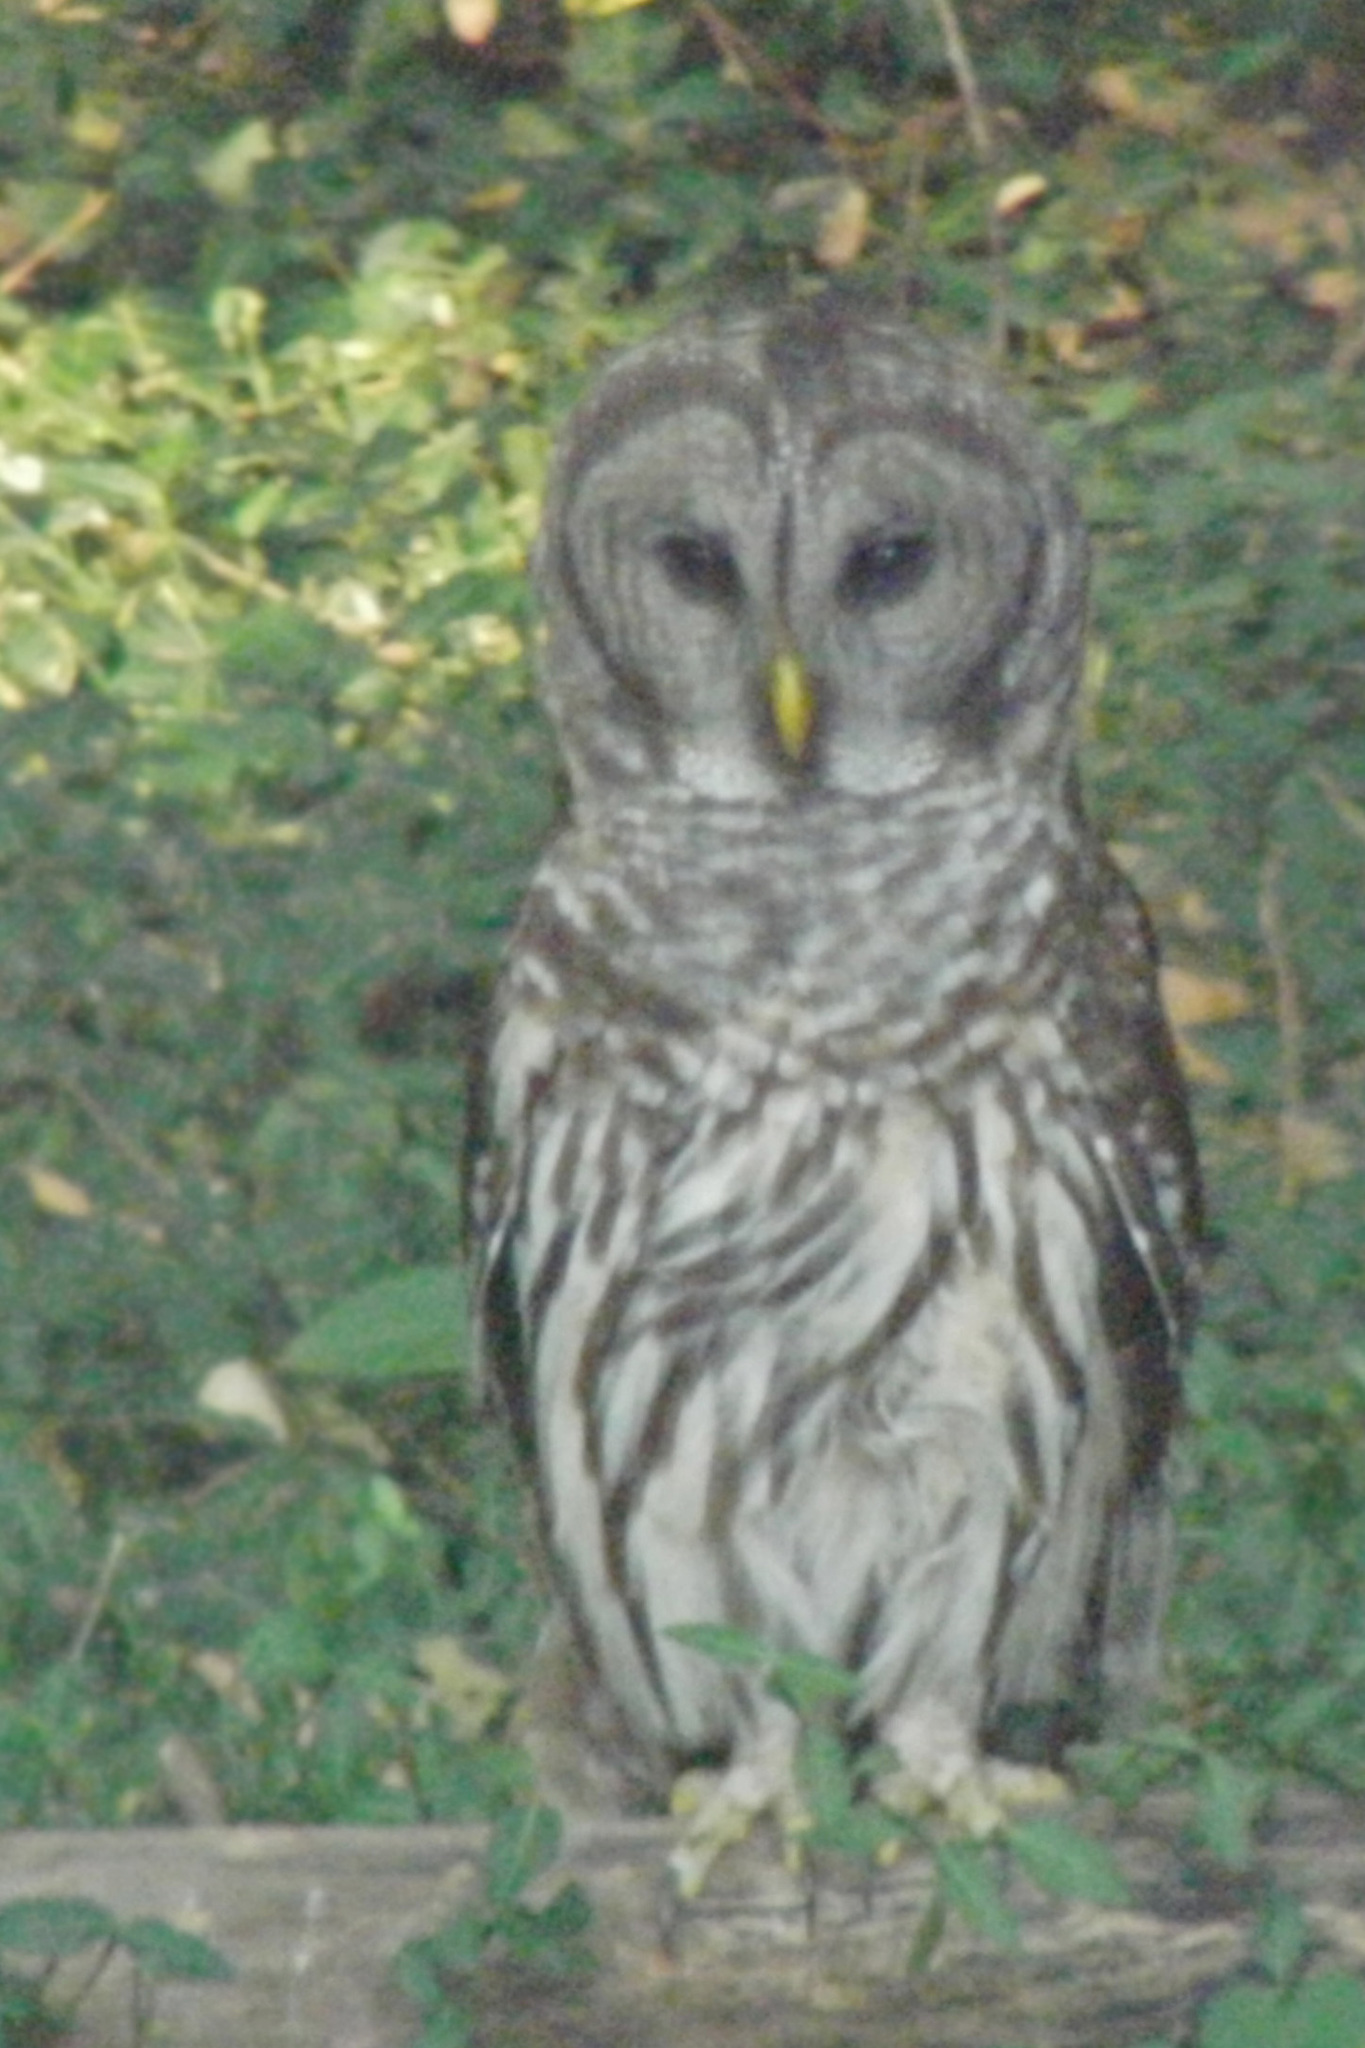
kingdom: Animalia
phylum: Chordata
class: Aves
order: Strigiformes
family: Strigidae
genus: Strix
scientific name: Strix varia
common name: Barred owl
